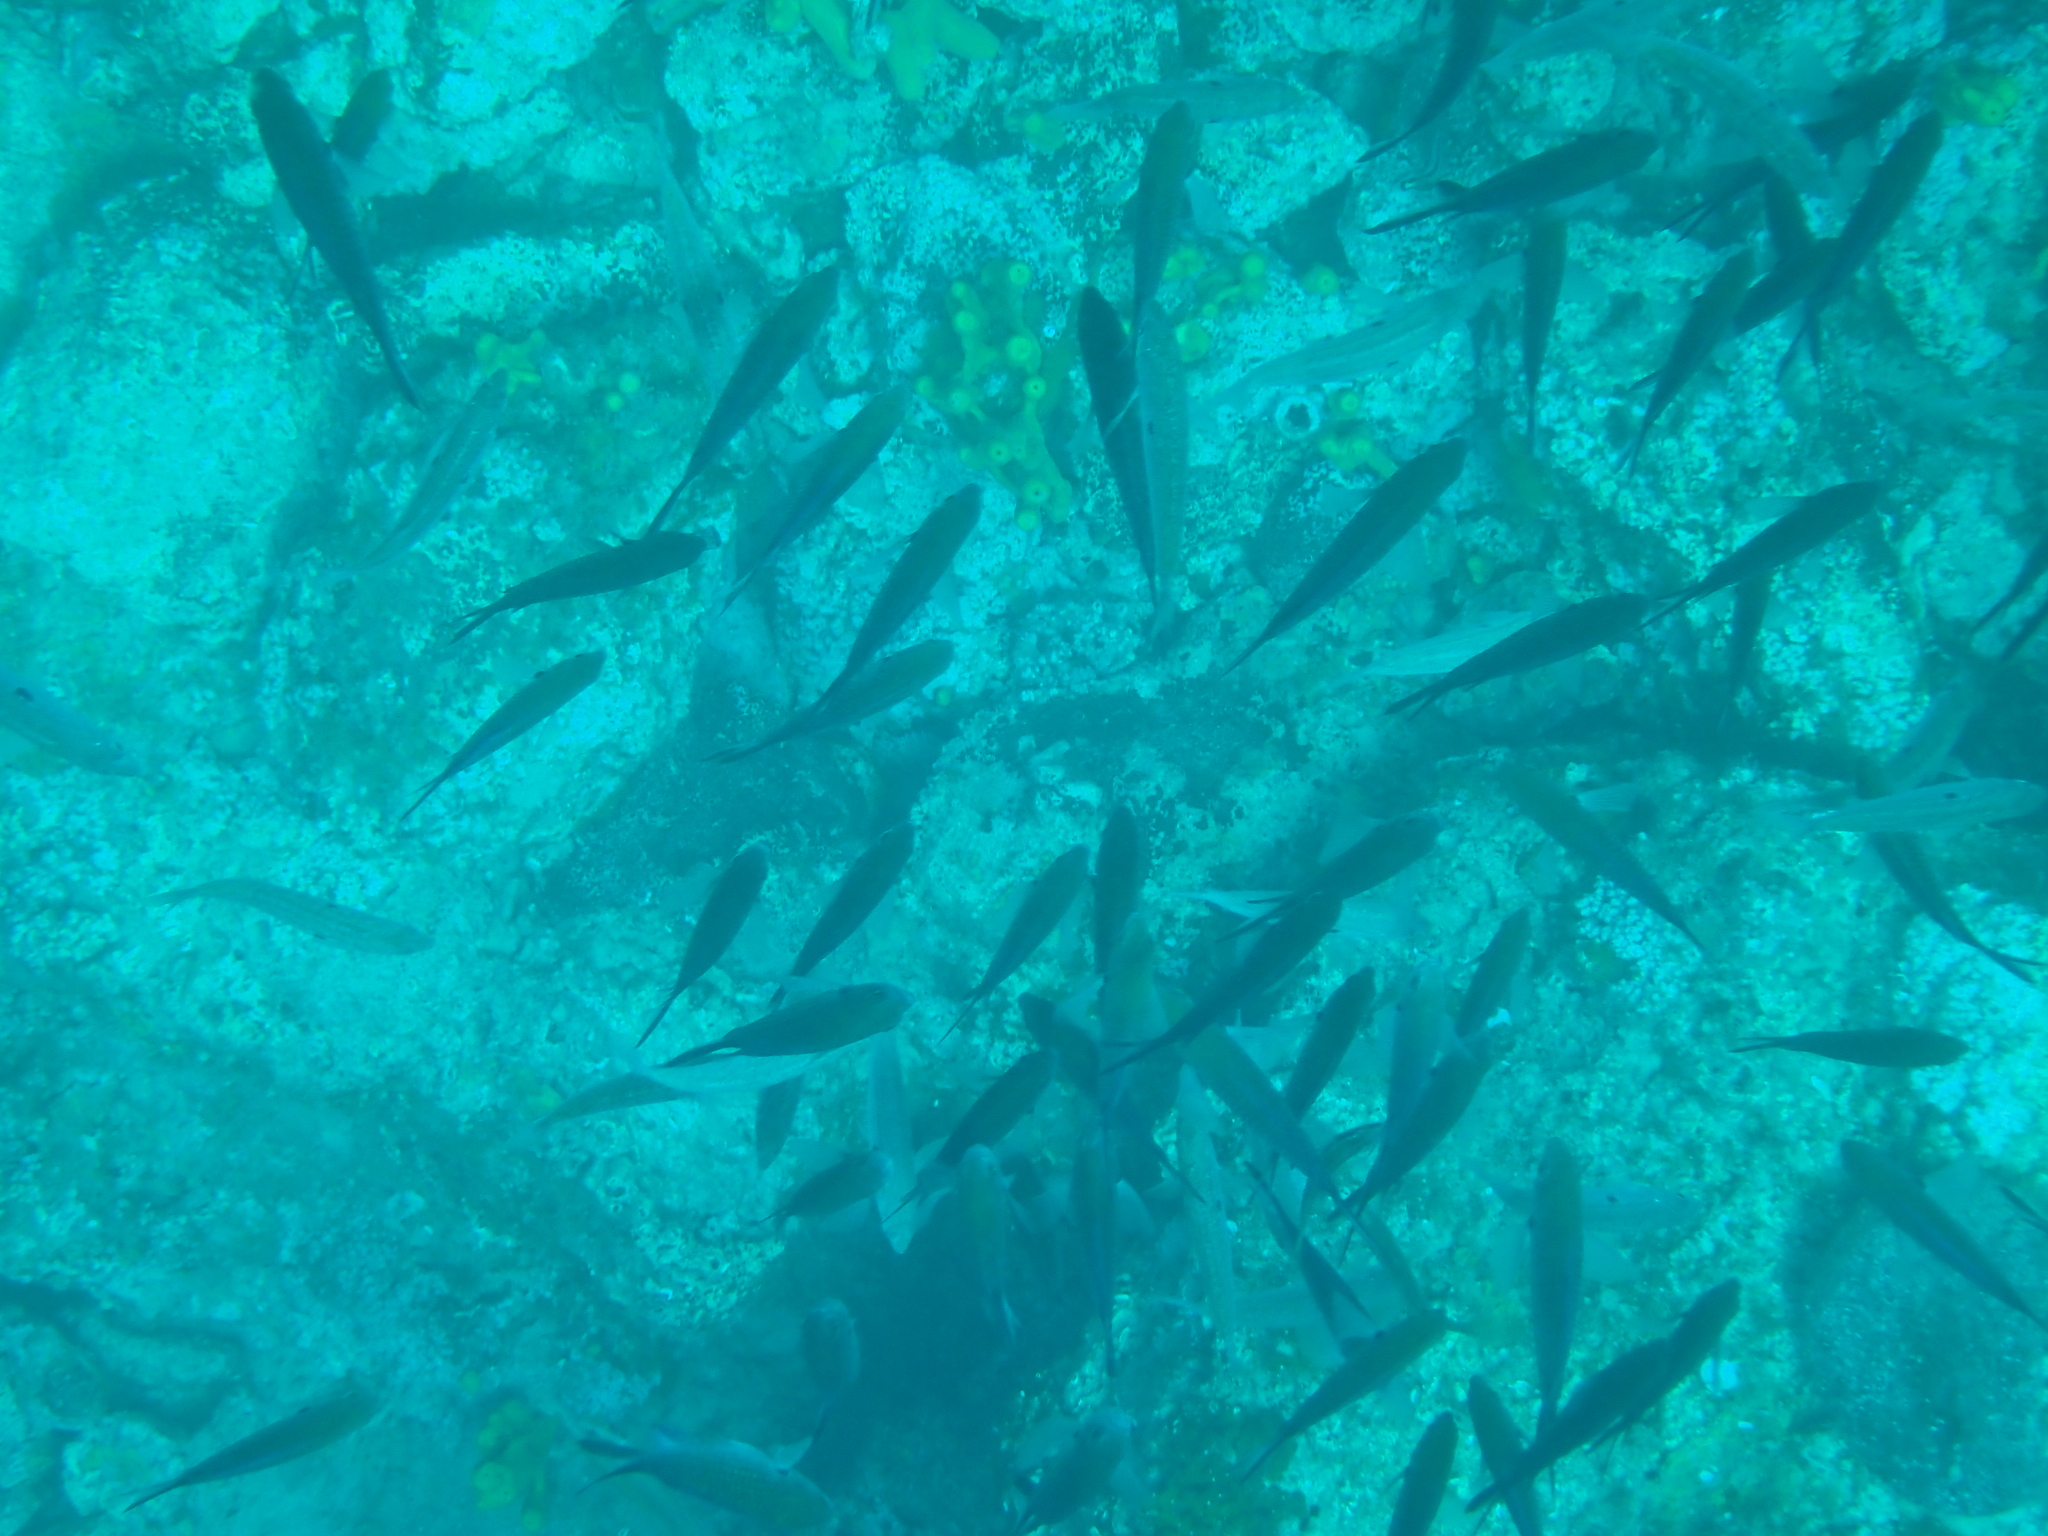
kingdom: Animalia
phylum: Chordata
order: Perciformes
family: Pomacentridae
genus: Chromis
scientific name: Chromis chromis
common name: Damselfish
